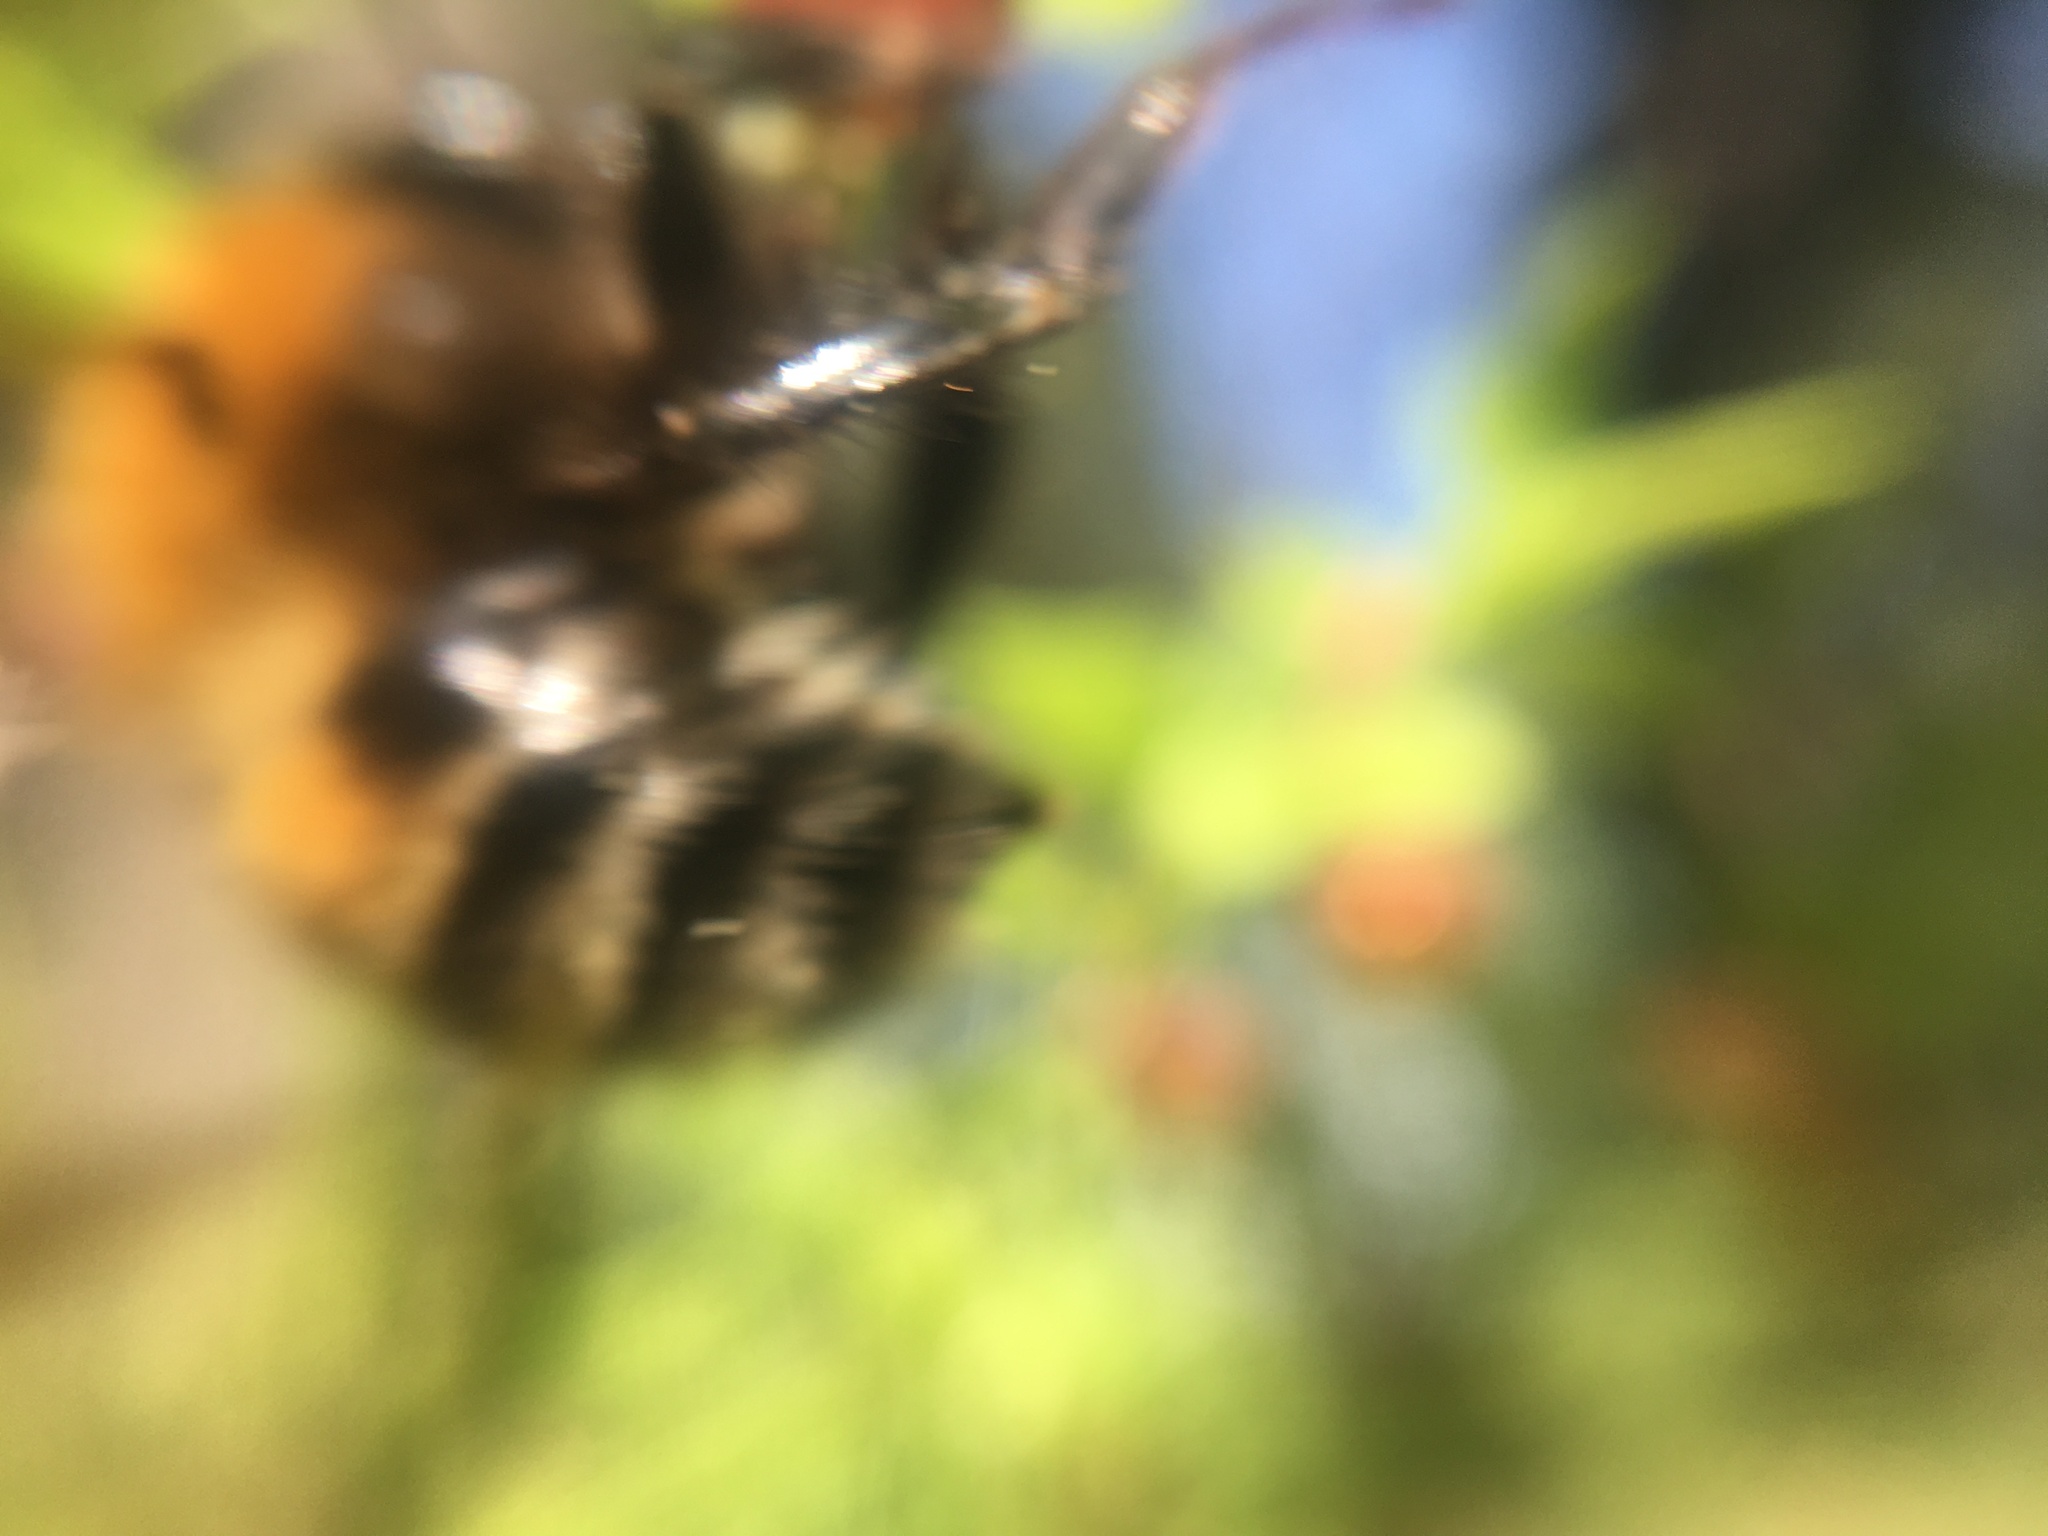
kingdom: Animalia
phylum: Arthropoda
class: Insecta
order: Hymenoptera
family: Apidae
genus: Bombus
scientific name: Bombus pascuorum
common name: Common carder bee
